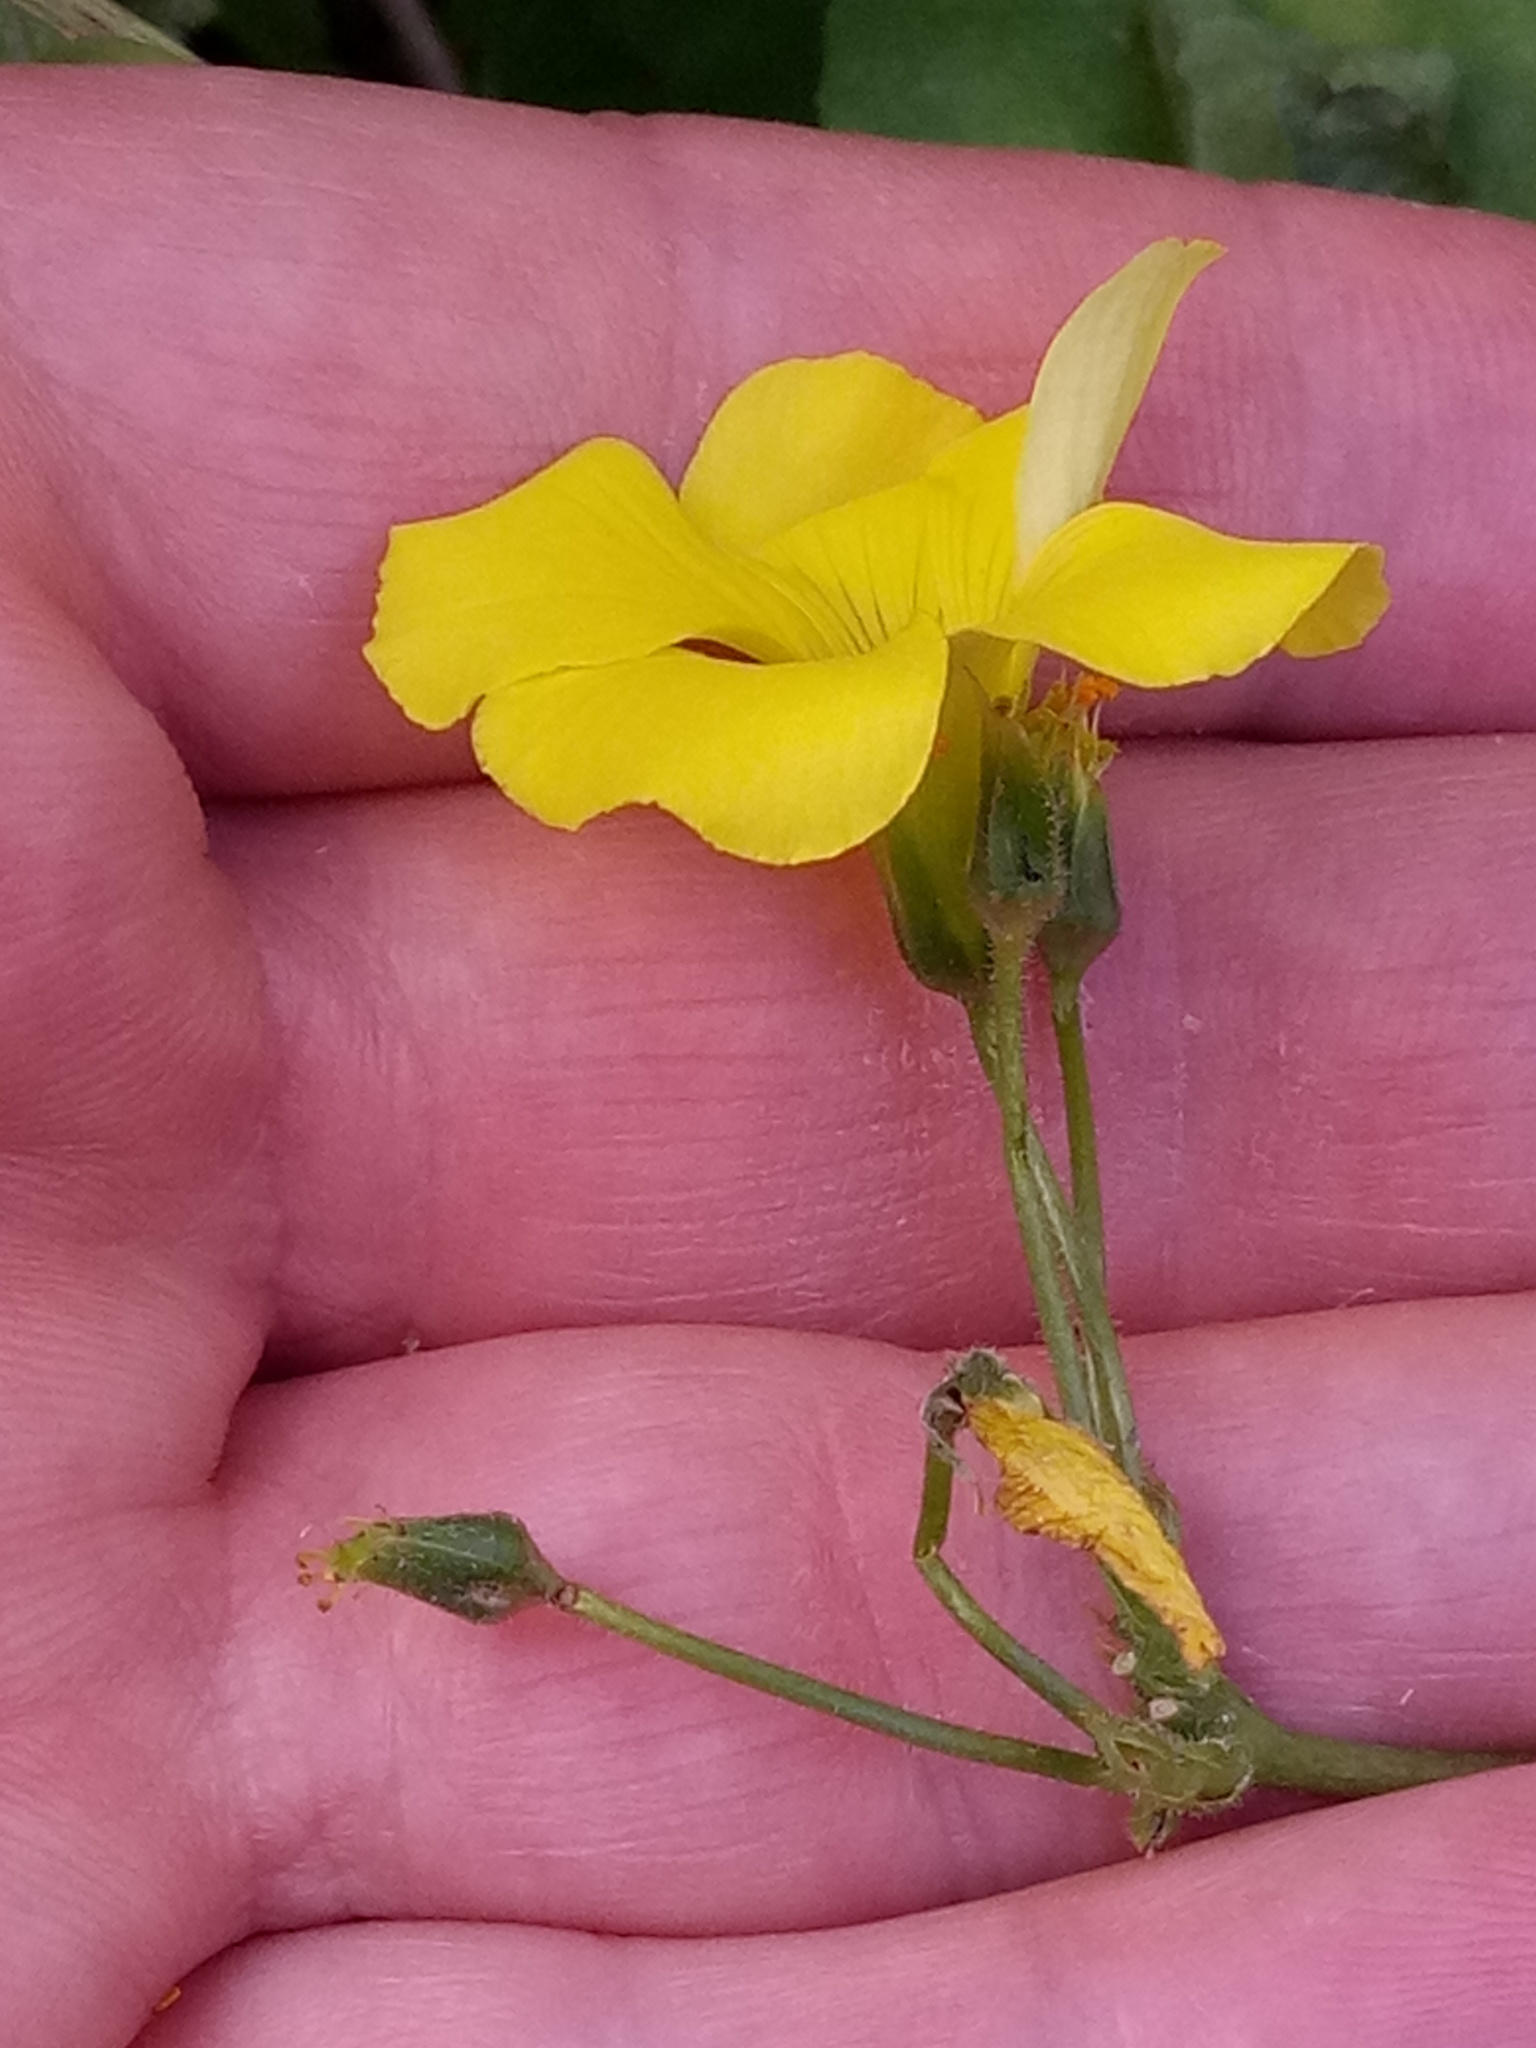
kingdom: Plantae
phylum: Tracheophyta
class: Magnoliopsida
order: Oxalidales
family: Oxalidaceae
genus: Oxalis
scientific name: Oxalis pes-caprae
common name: Bermuda-buttercup
